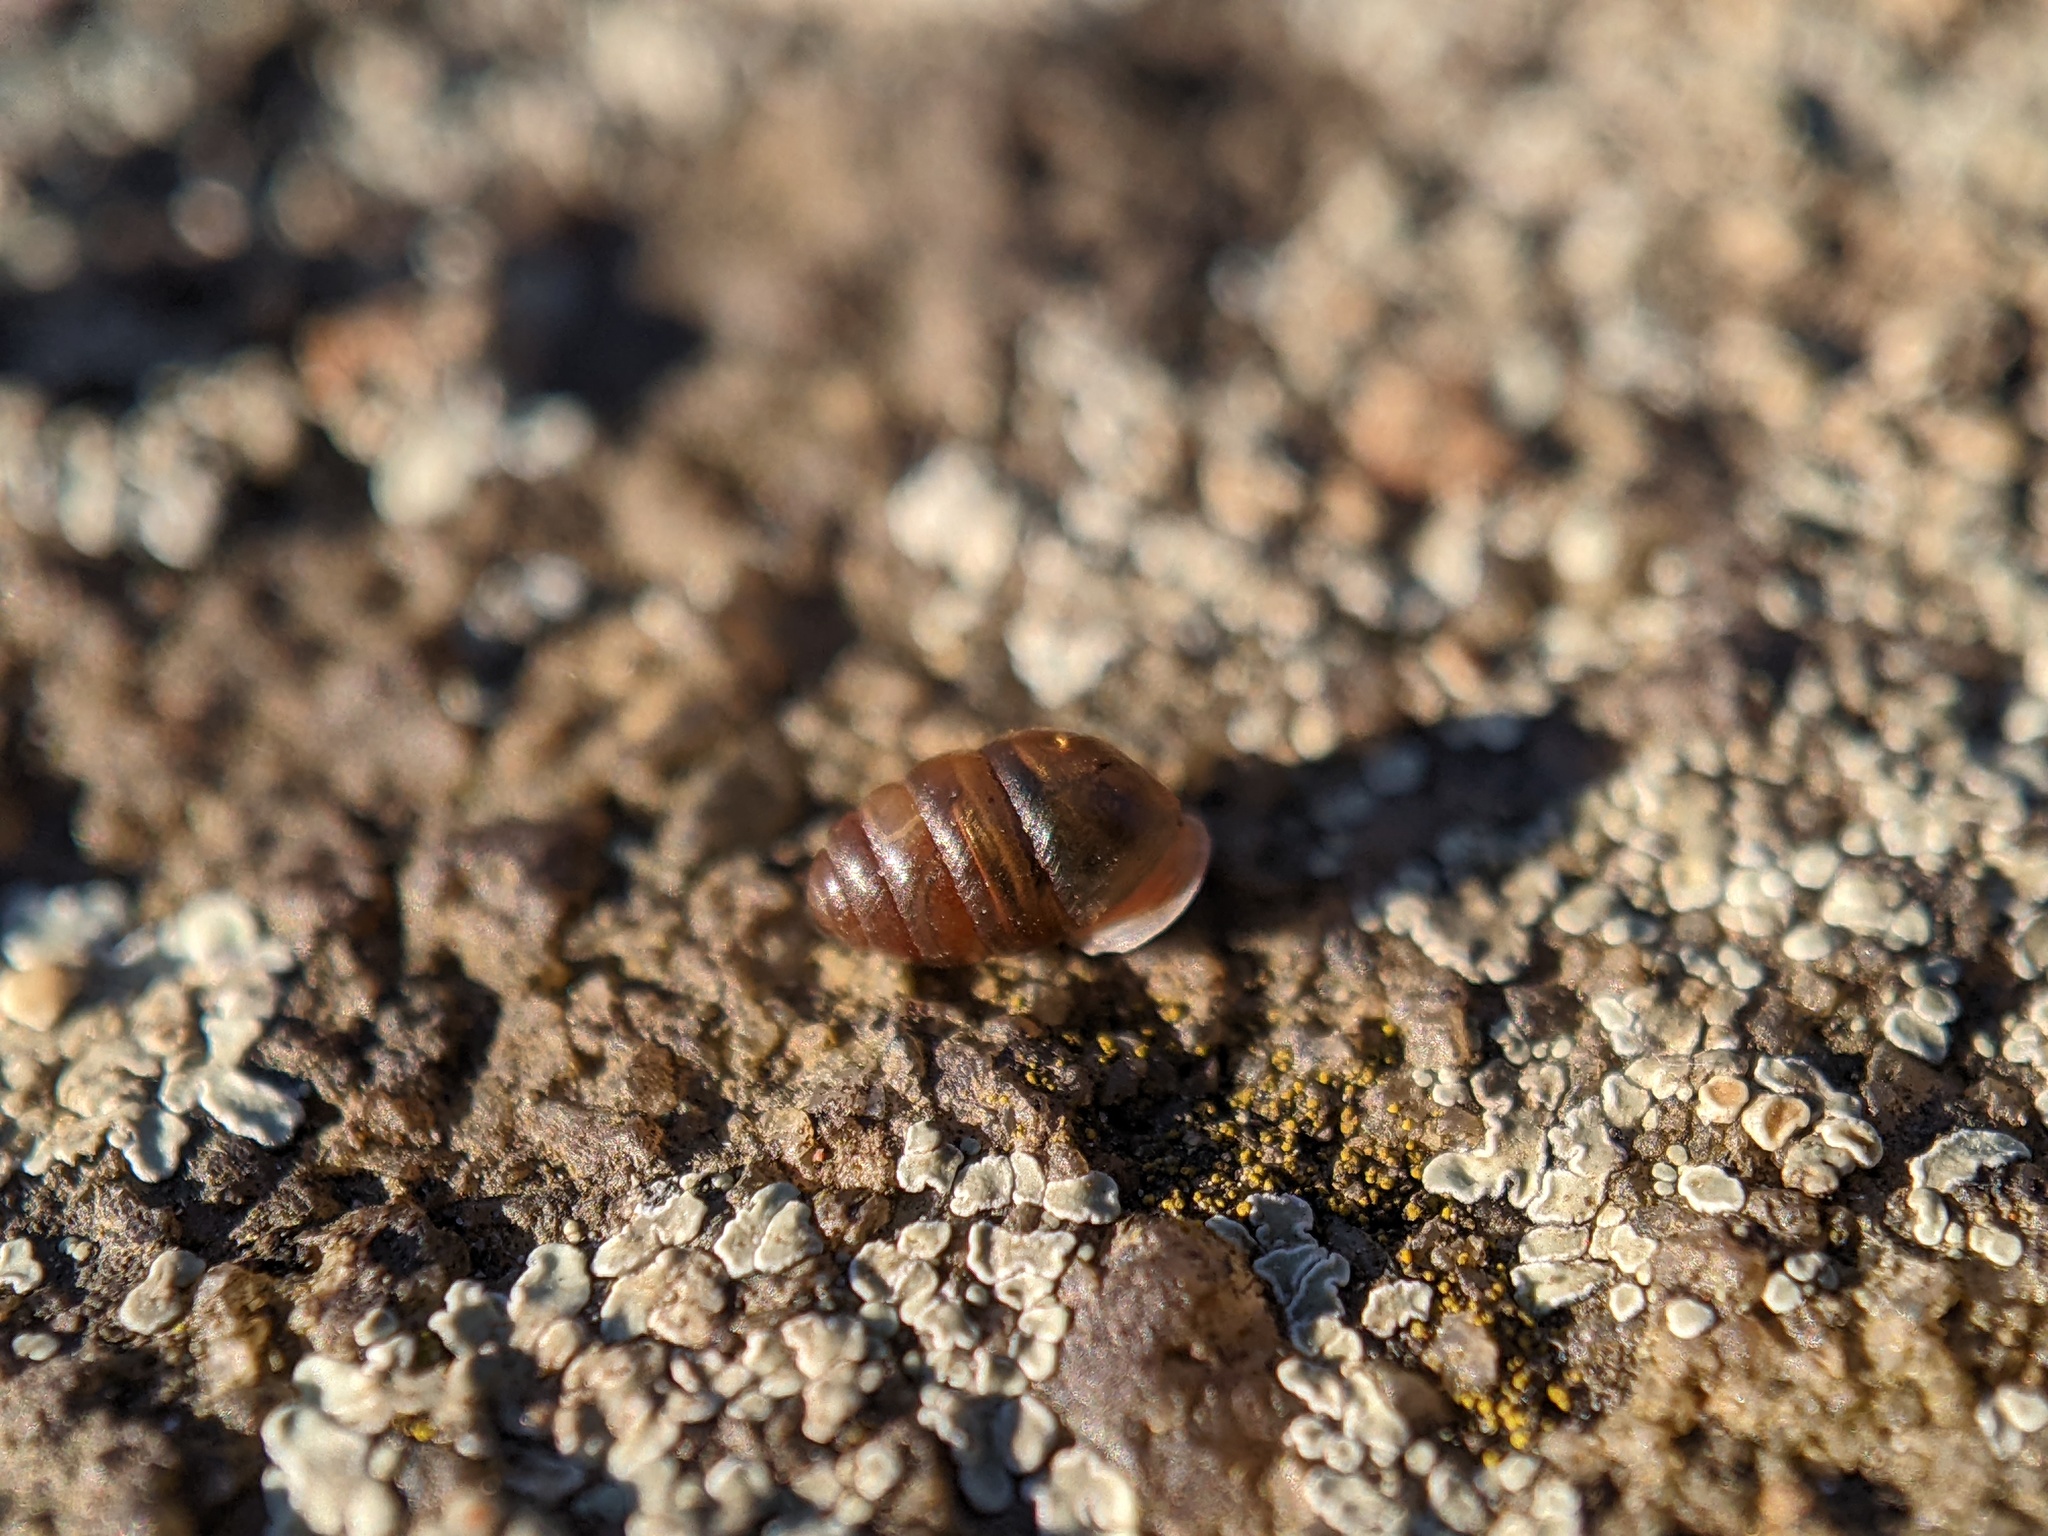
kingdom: Animalia
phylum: Mollusca
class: Gastropoda
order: Stylommatophora
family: Lauriidae
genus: Lauria
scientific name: Lauria cylindracea
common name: Common chrysalis snail
